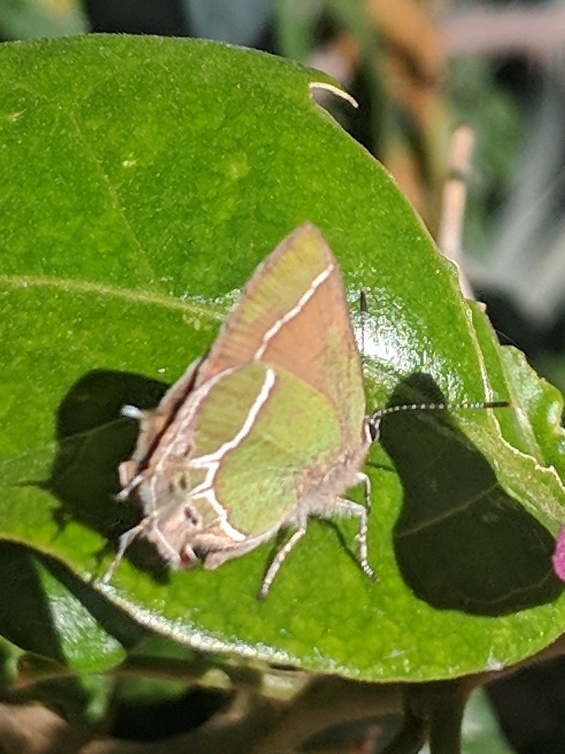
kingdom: Animalia
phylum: Arthropoda
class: Insecta
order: Lepidoptera
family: Lycaenidae
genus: Xamia
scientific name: Xamia xami
